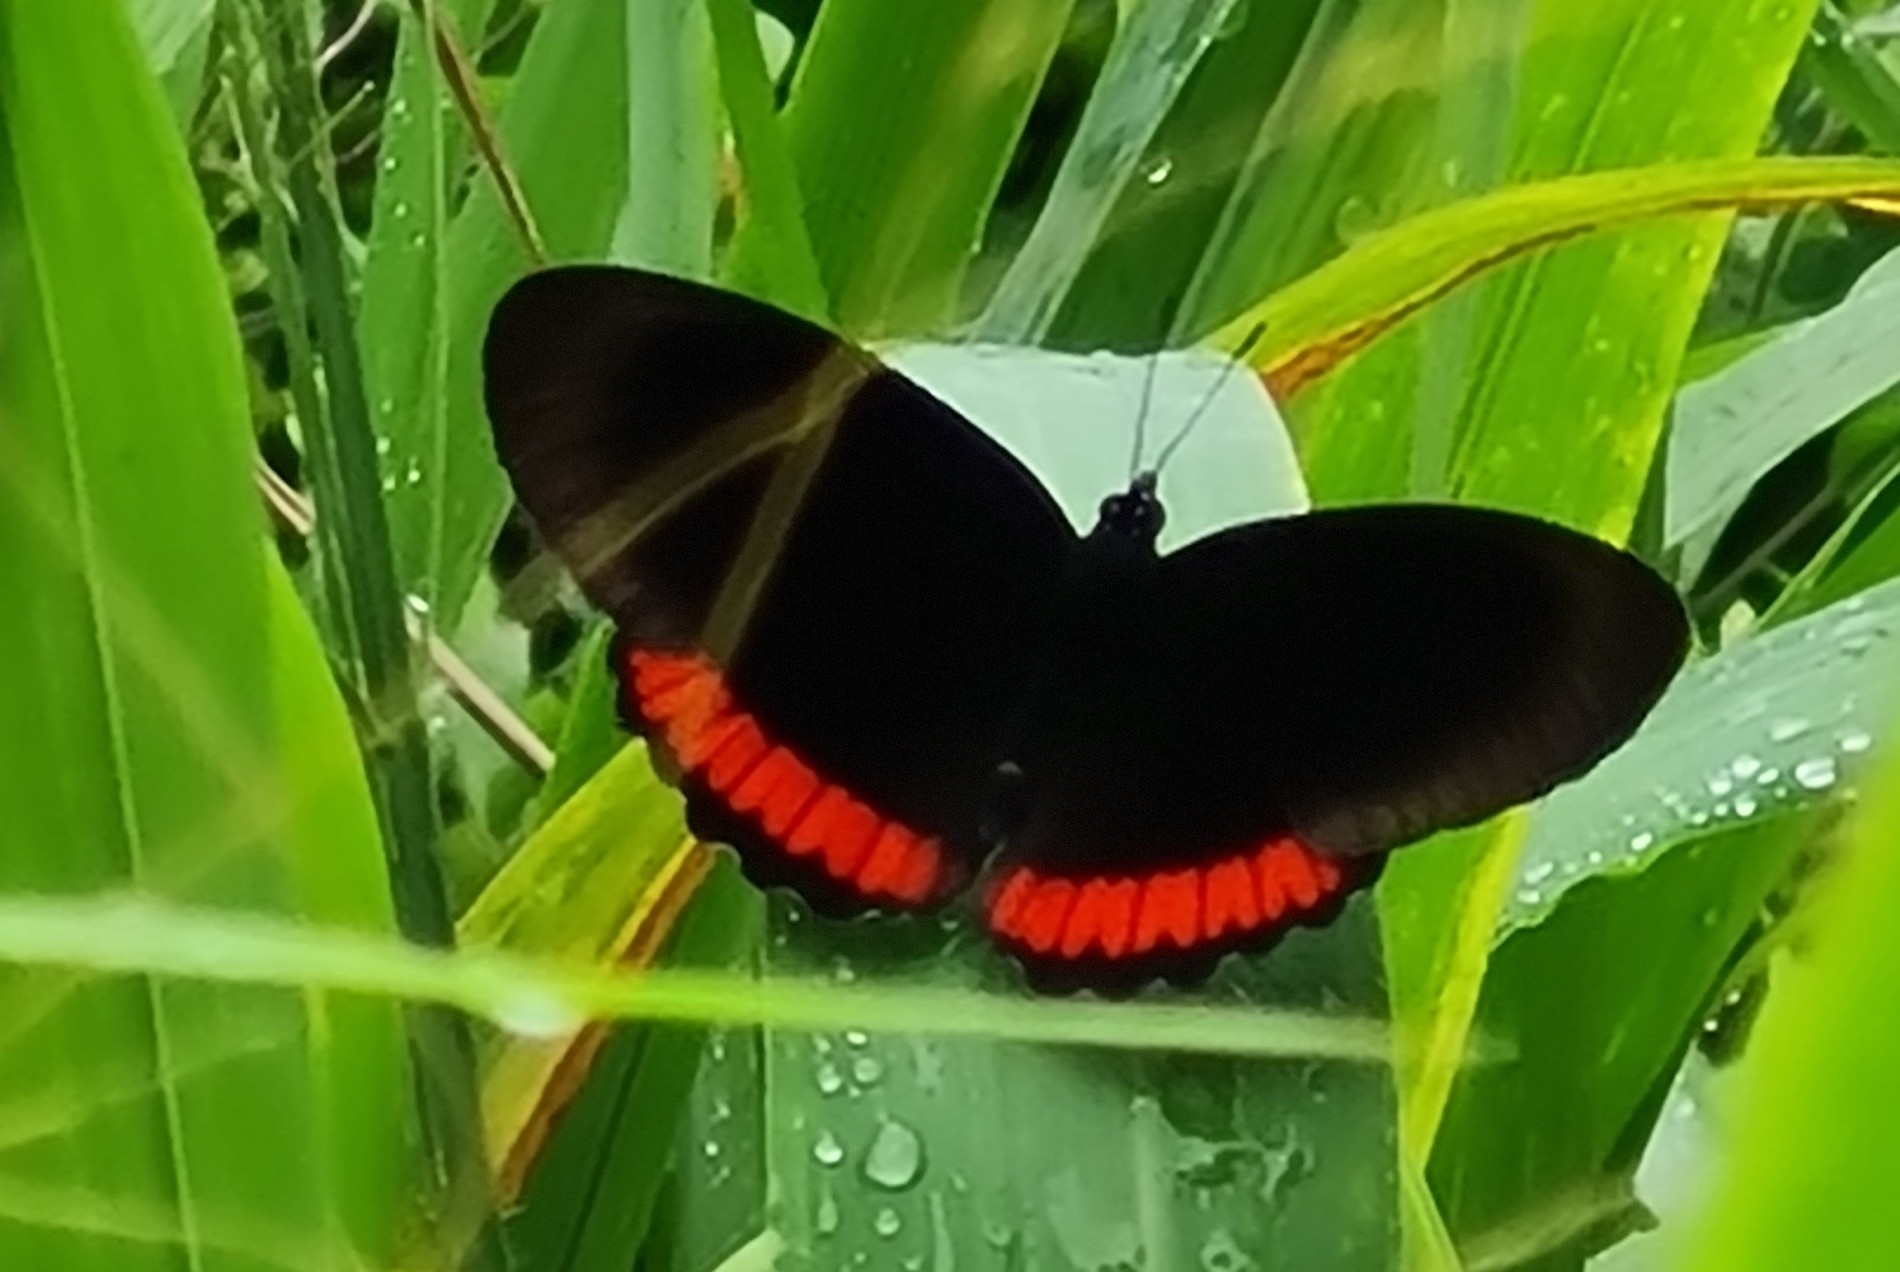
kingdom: Animalia
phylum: Arthropoda
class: Insecta
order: Lepidoptera
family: Sesiidae
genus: Sesia
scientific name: Sesia Biblis hyperia
